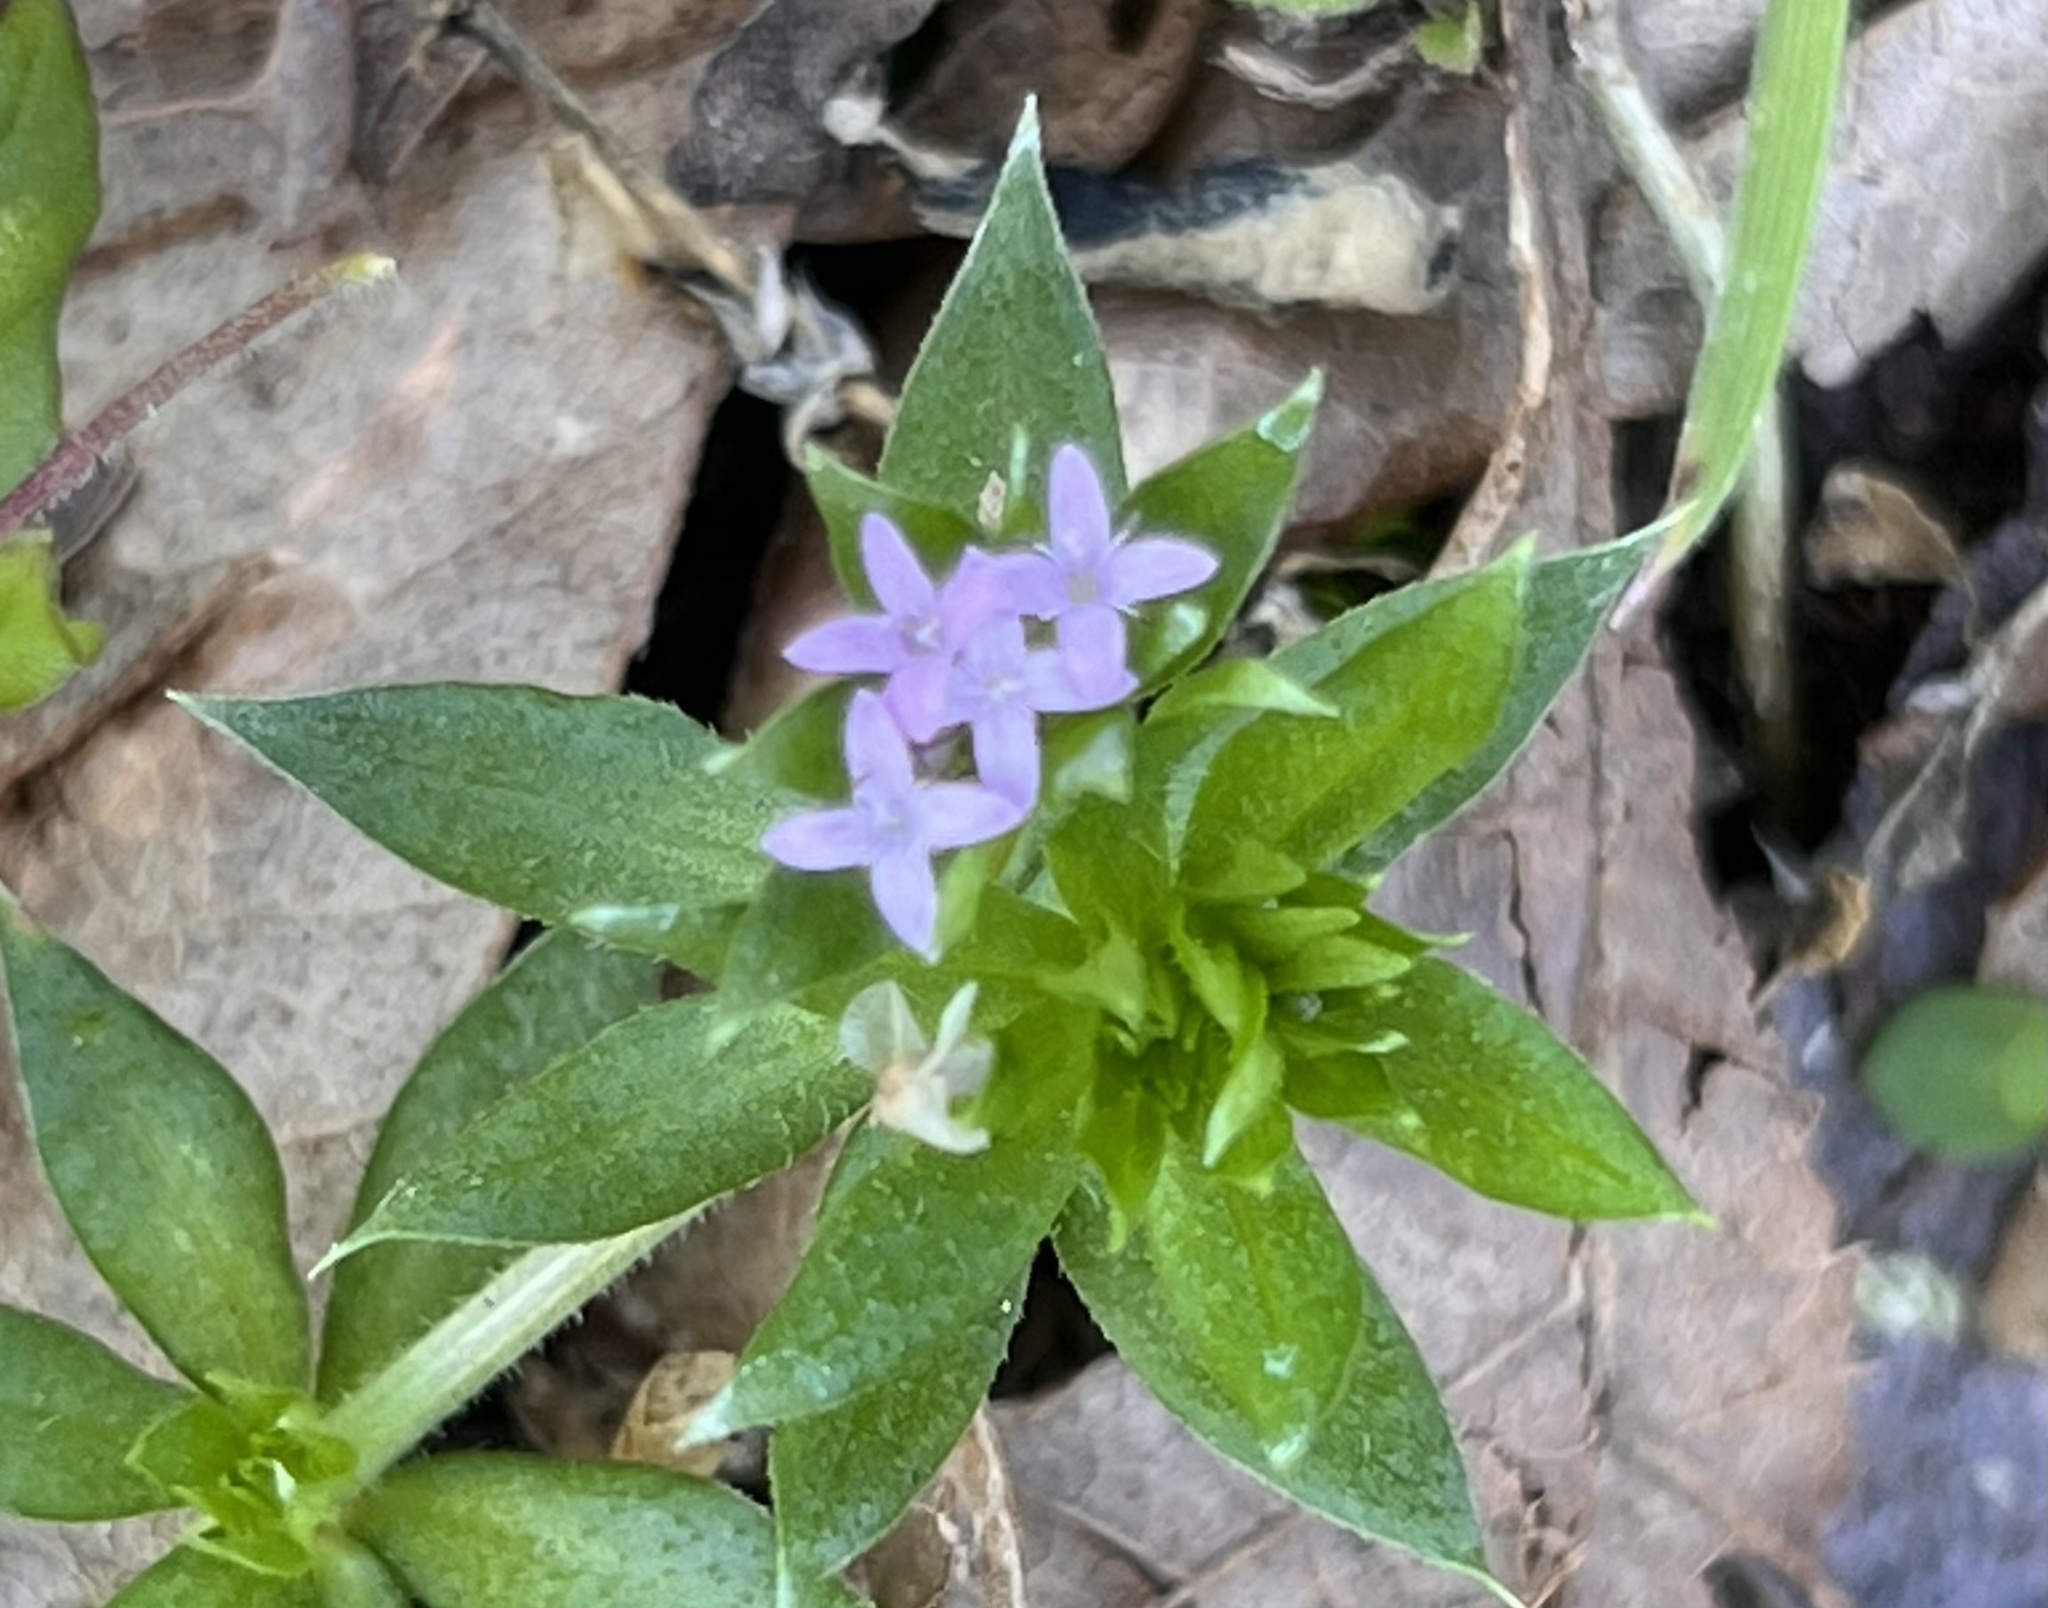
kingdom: Plantae
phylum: Tracheophyta
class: Magnoliopsida
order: Gentianales
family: Rubiaceae
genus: Sherardia
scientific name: Sherardia arvensis
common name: Field madder
